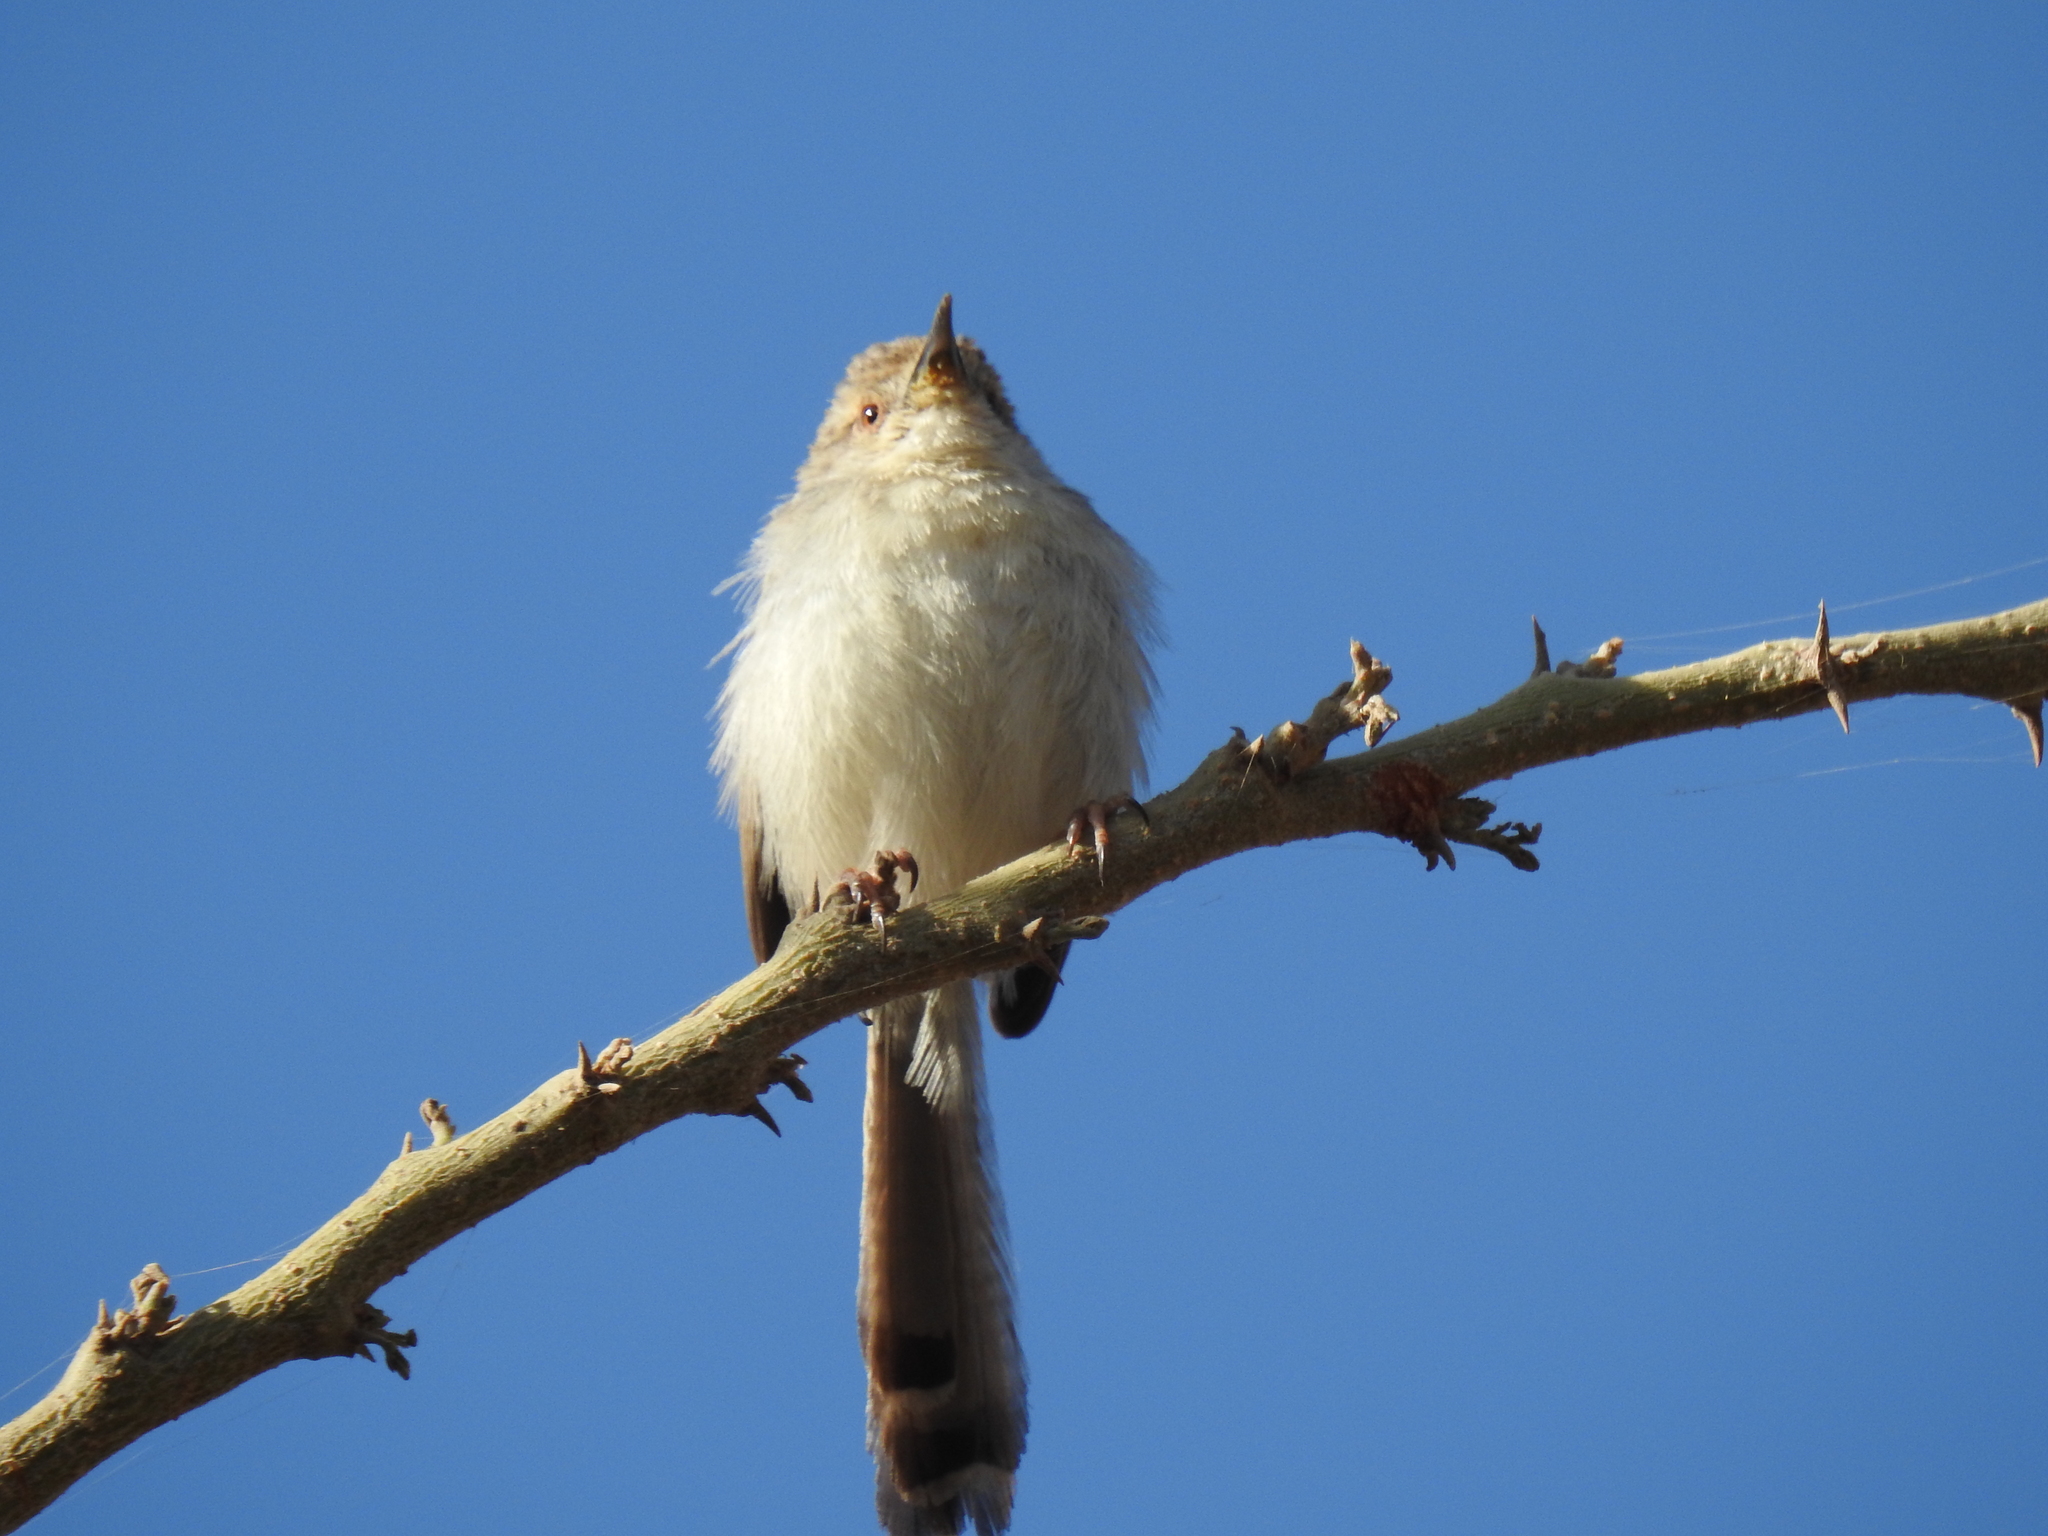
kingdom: Animalia
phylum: Chordata
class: Aves
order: Passeriformes
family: Cisticolidae
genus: Prinia
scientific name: Prinia gracilis
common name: Graceful prinia
